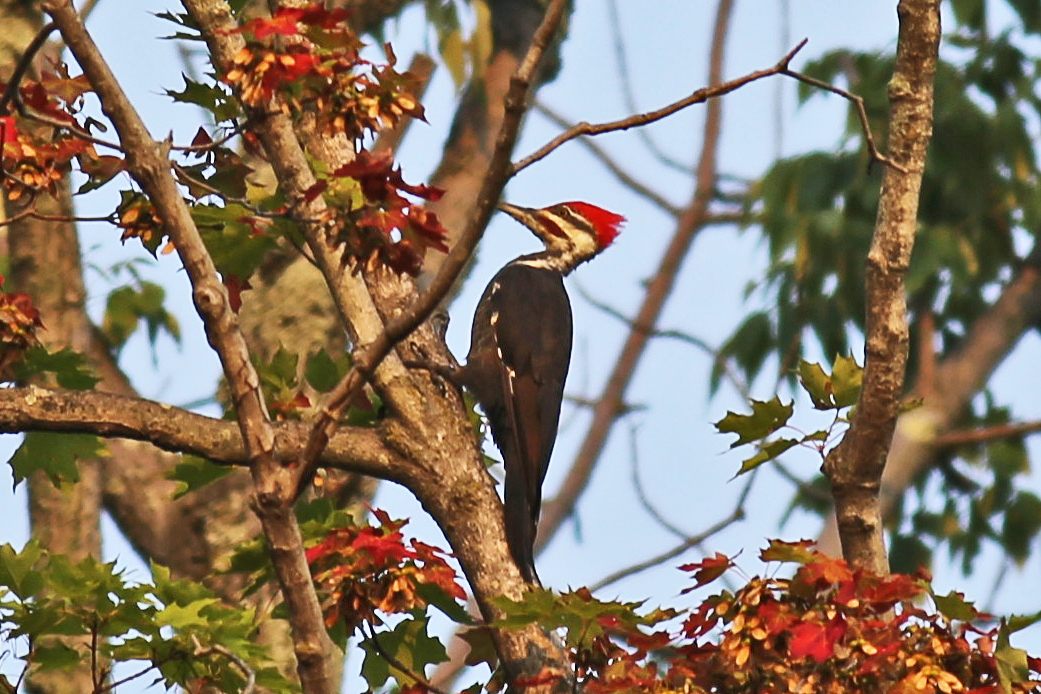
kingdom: Animalia
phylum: Chordata
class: Aves
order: Piciformes
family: Picidae
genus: Dryocopus
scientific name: Dryocopus pileatus
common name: Pileated woodpecker
